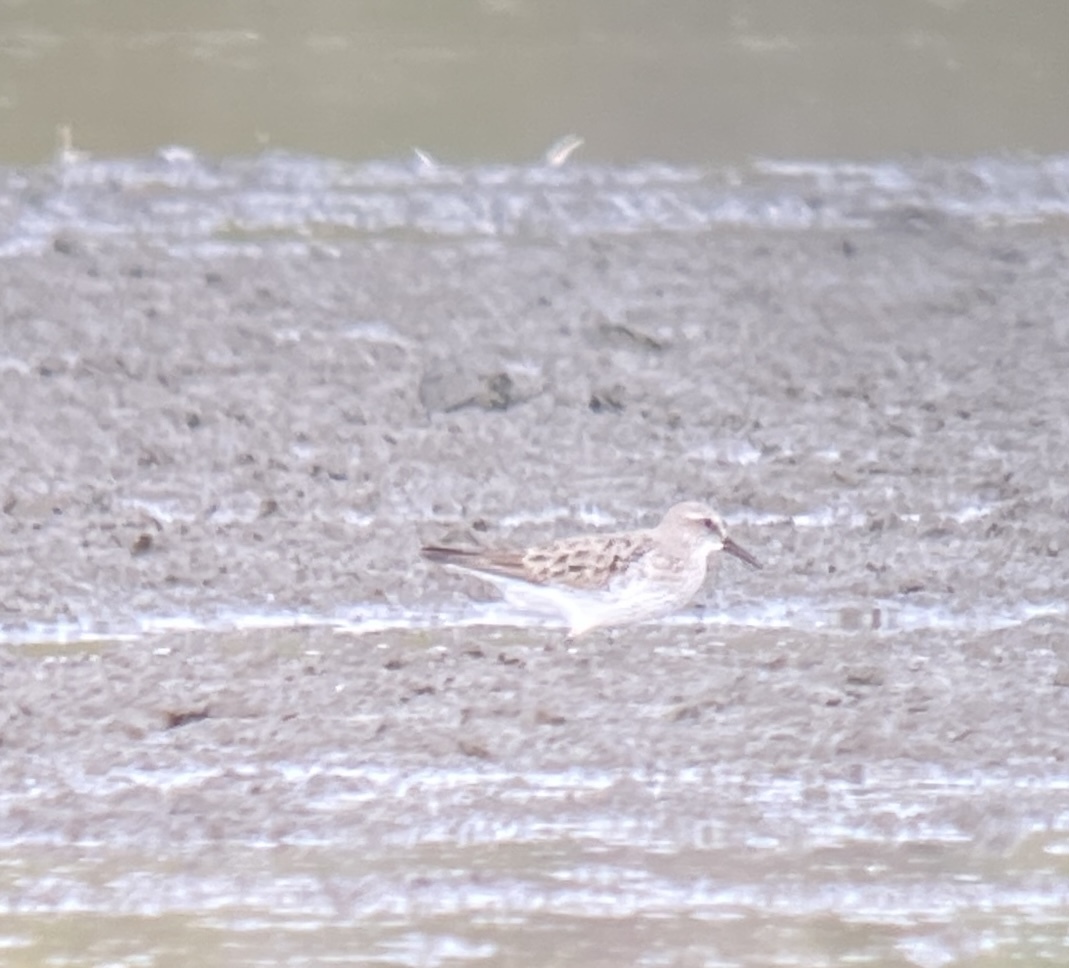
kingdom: Animalia
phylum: Chordata
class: Aves
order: Charadriiformes
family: Scolopacidae
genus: Calidris
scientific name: Calidris fuscicollis
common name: White-rumped sandpiper
